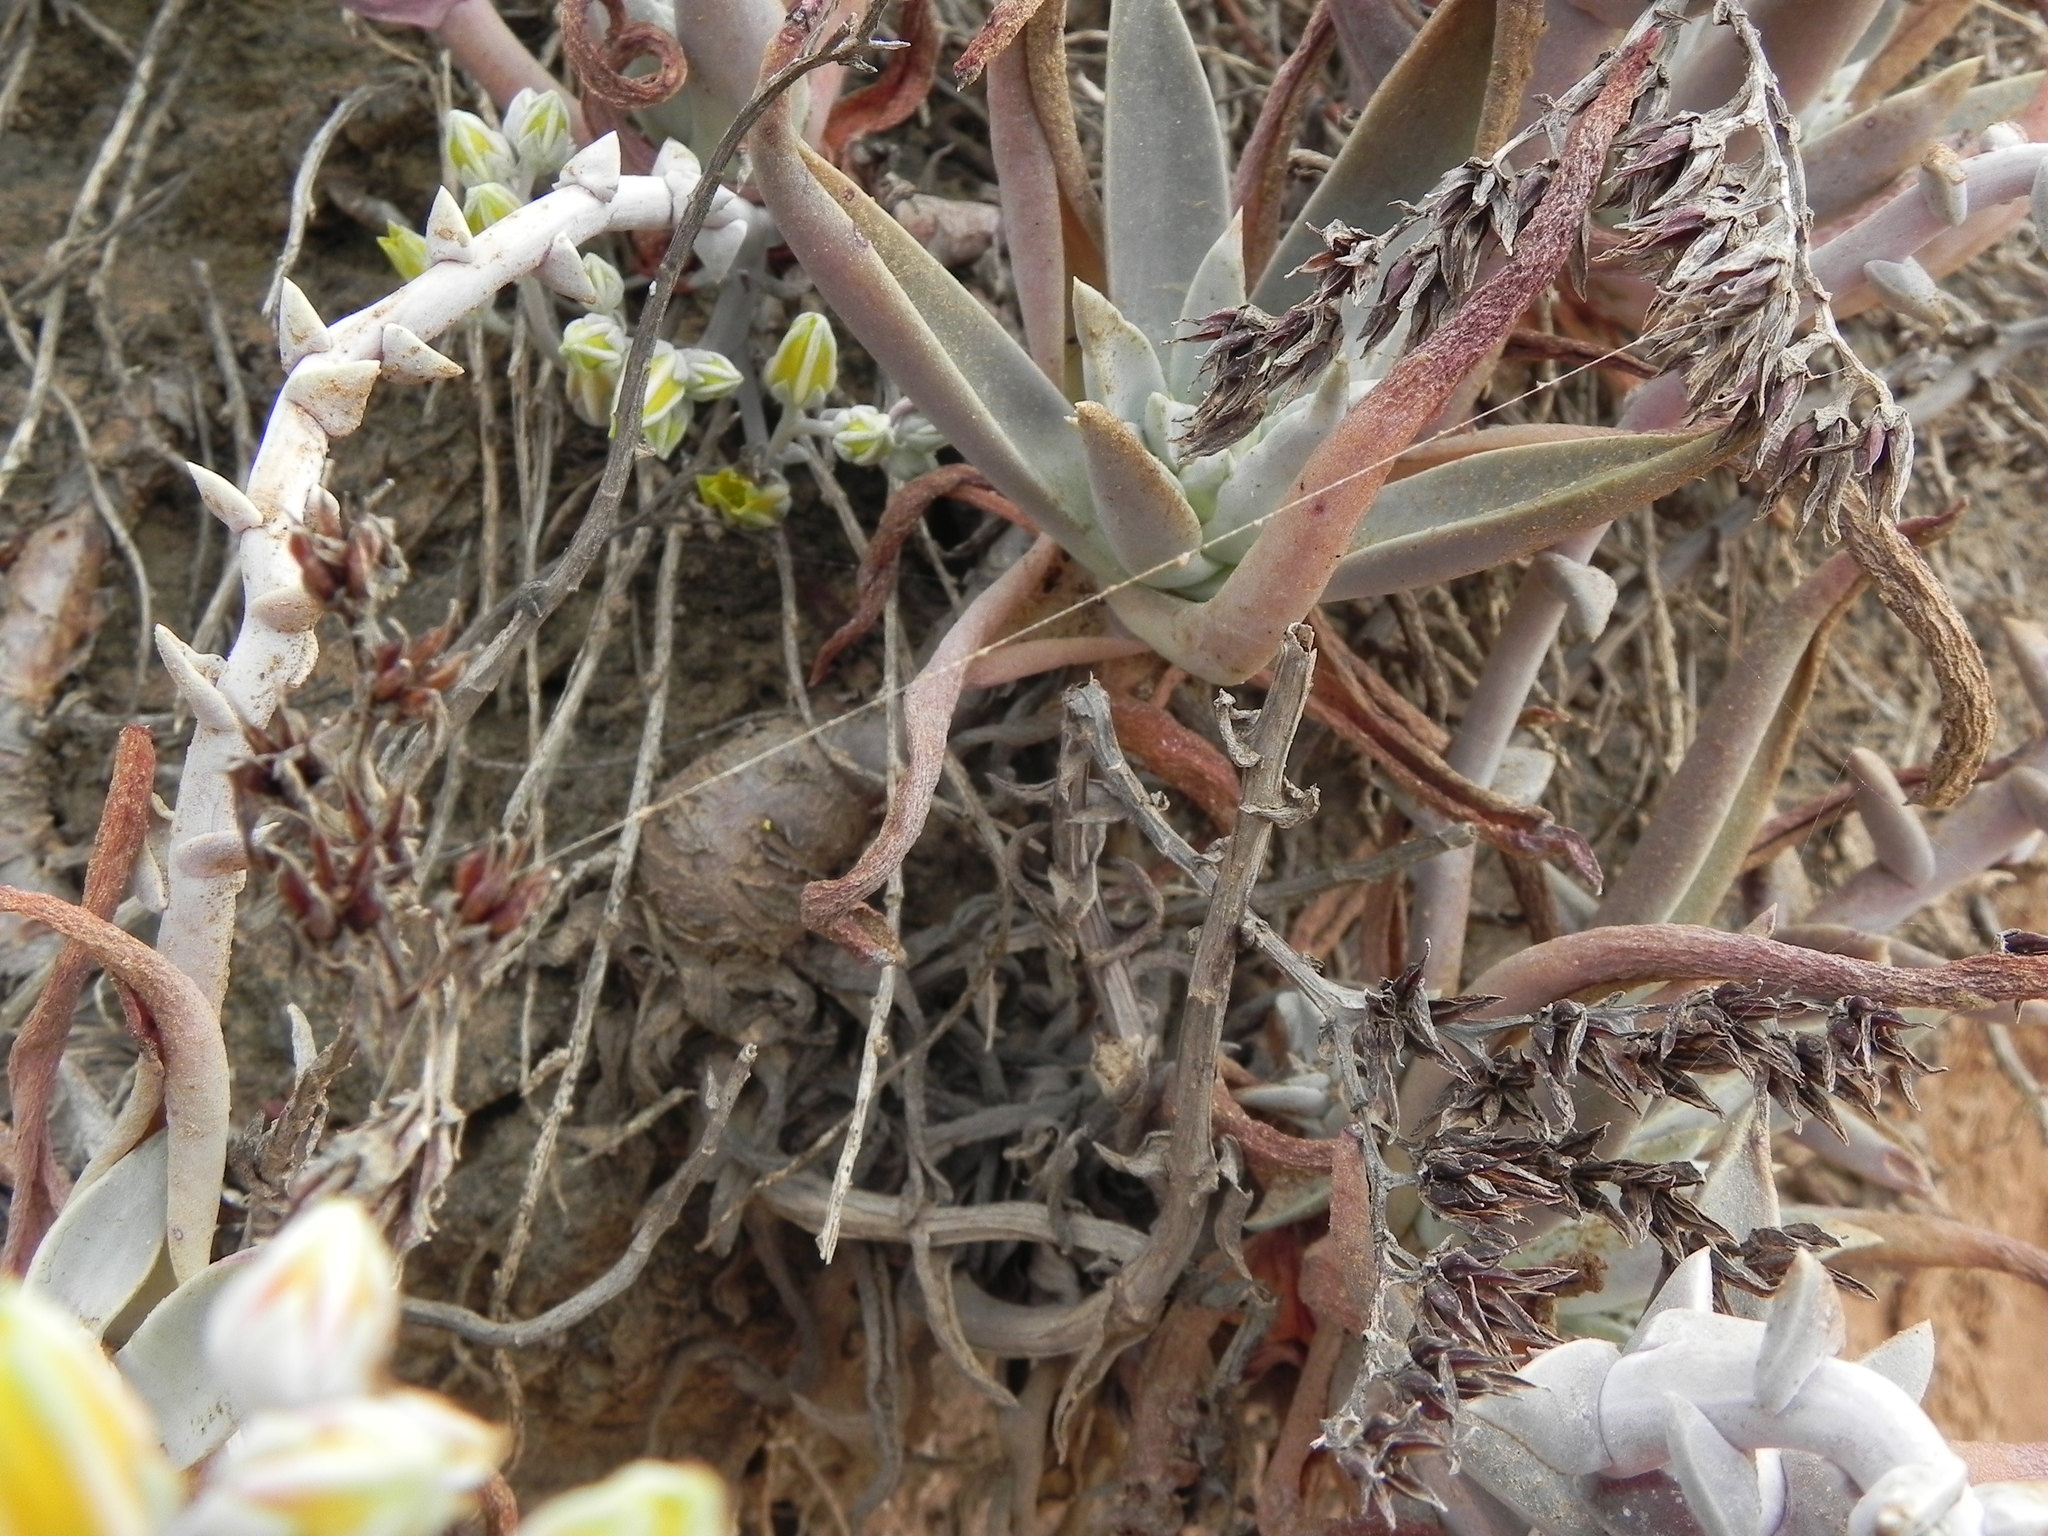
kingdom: Plantae
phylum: Tracheophyta
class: Magnoliopsida
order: Saxifragales
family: Crassulaceae
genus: Dudleya
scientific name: Dudleya caespitosa
